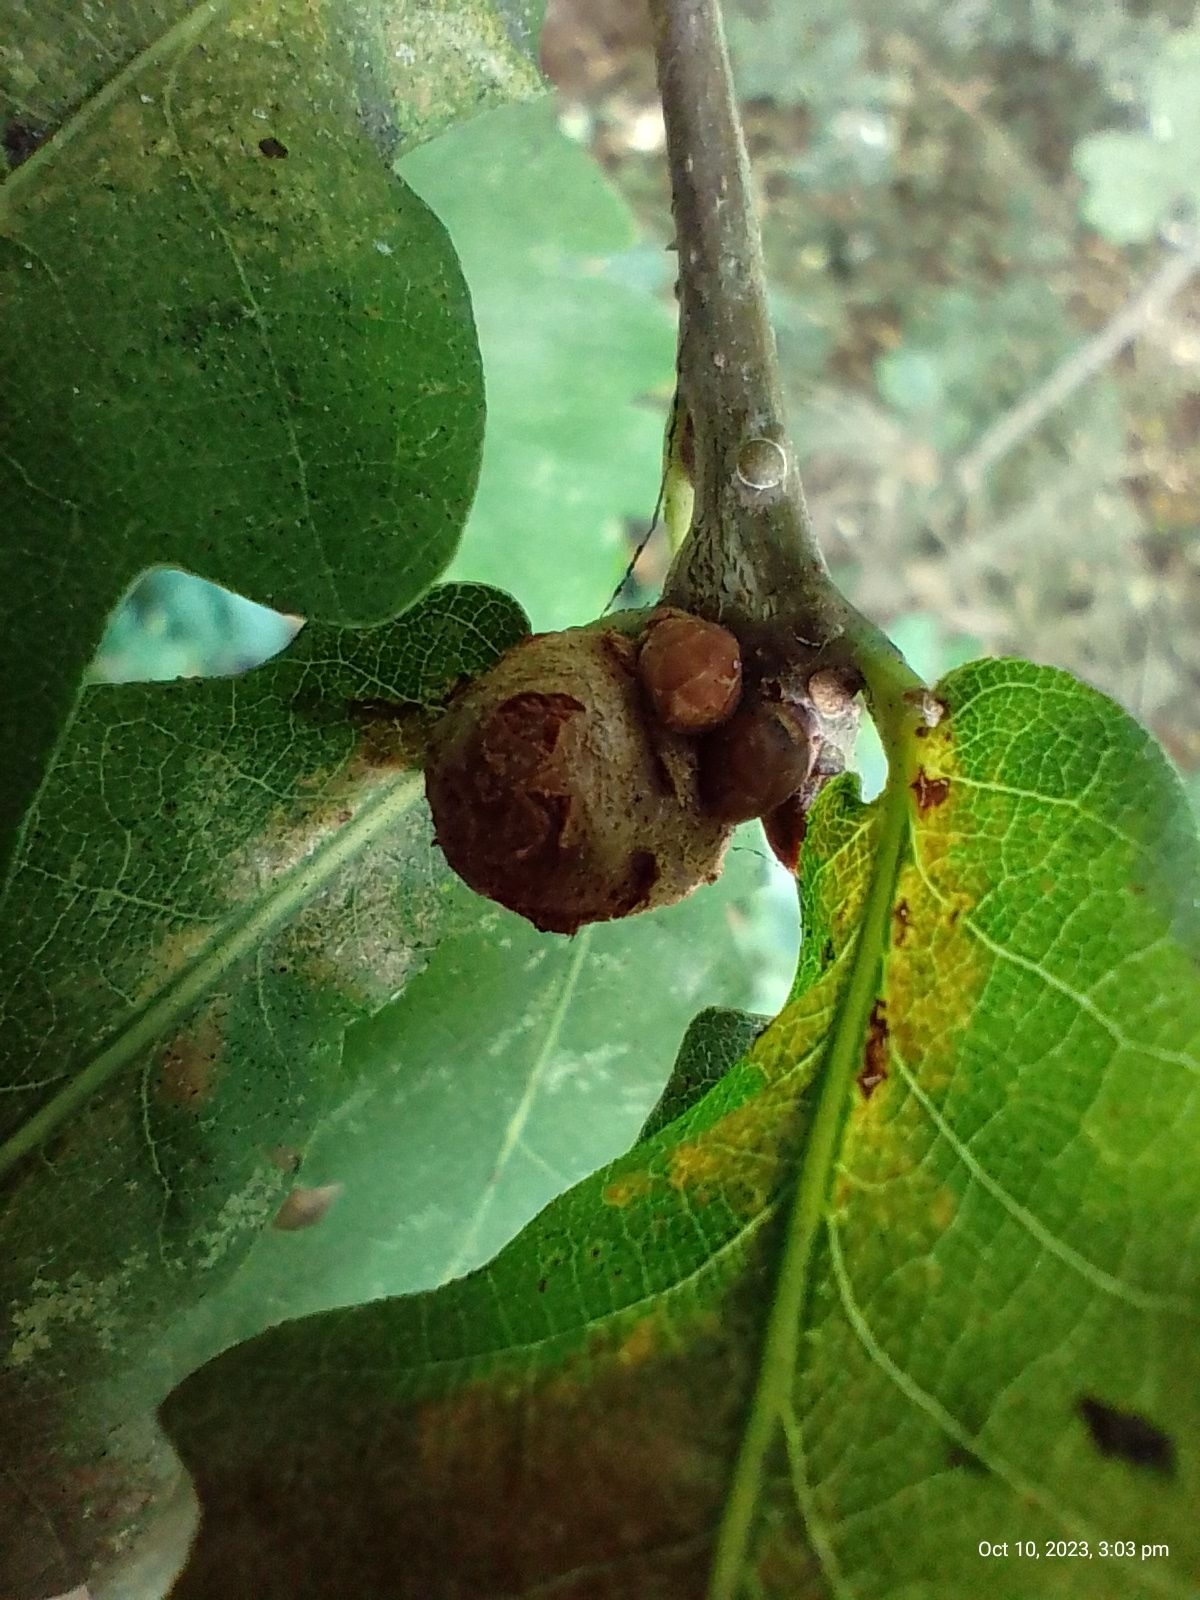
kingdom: Animalia
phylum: Arthropoda
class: Insecta
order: Hymenoptera
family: Cynipidae
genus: Andricus
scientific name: Andricus lignicolus
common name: Cola-nut gall
